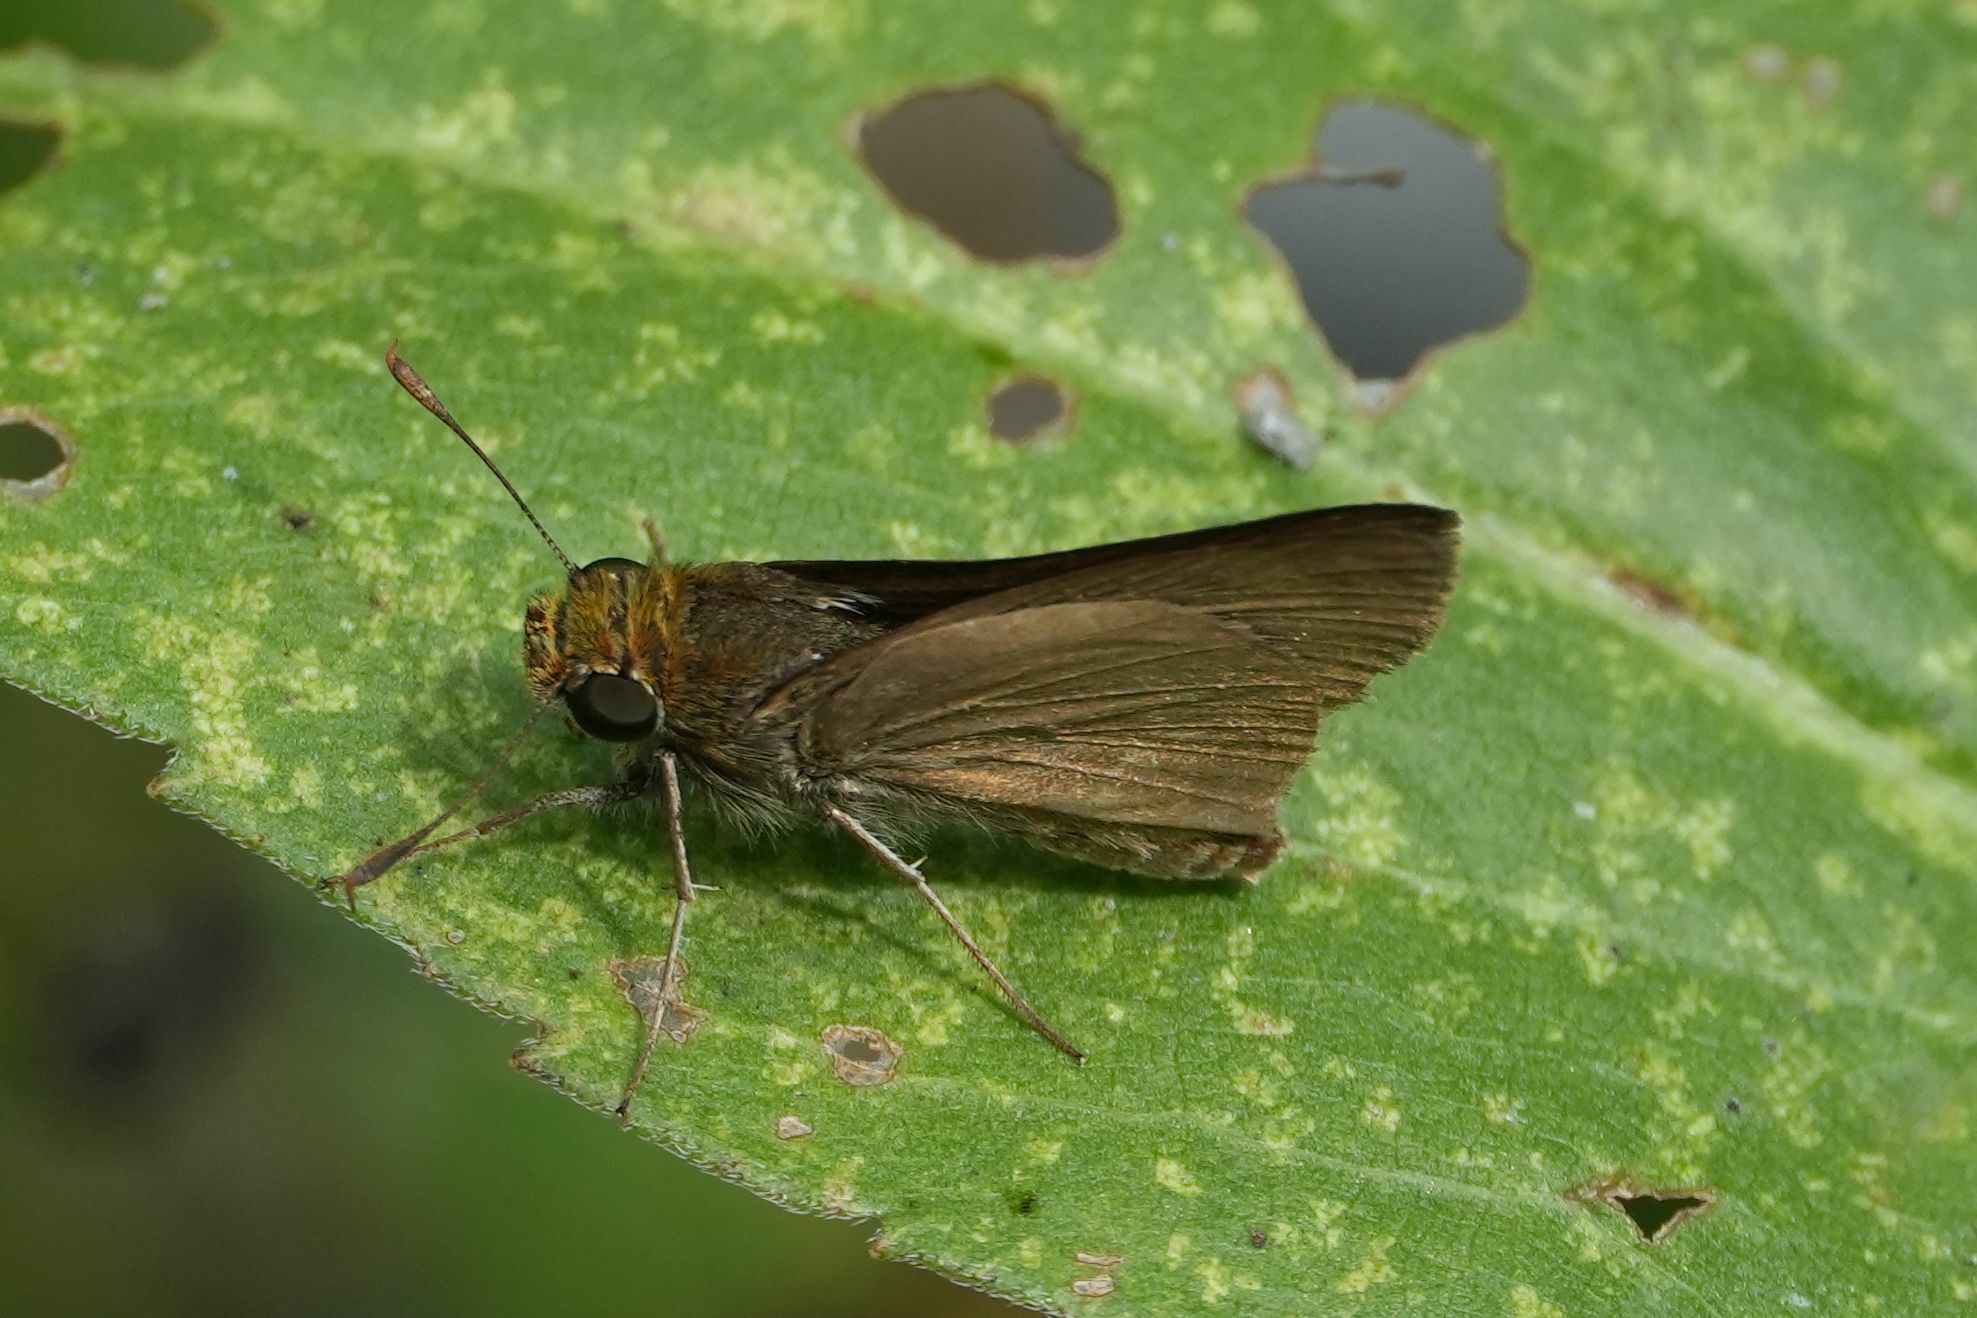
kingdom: Animalia
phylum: Arthropoda
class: Insecta
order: Lepidoptera
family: Hesperiidae
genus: Euphyes
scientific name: Euphyes vestris
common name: Dun skipper
